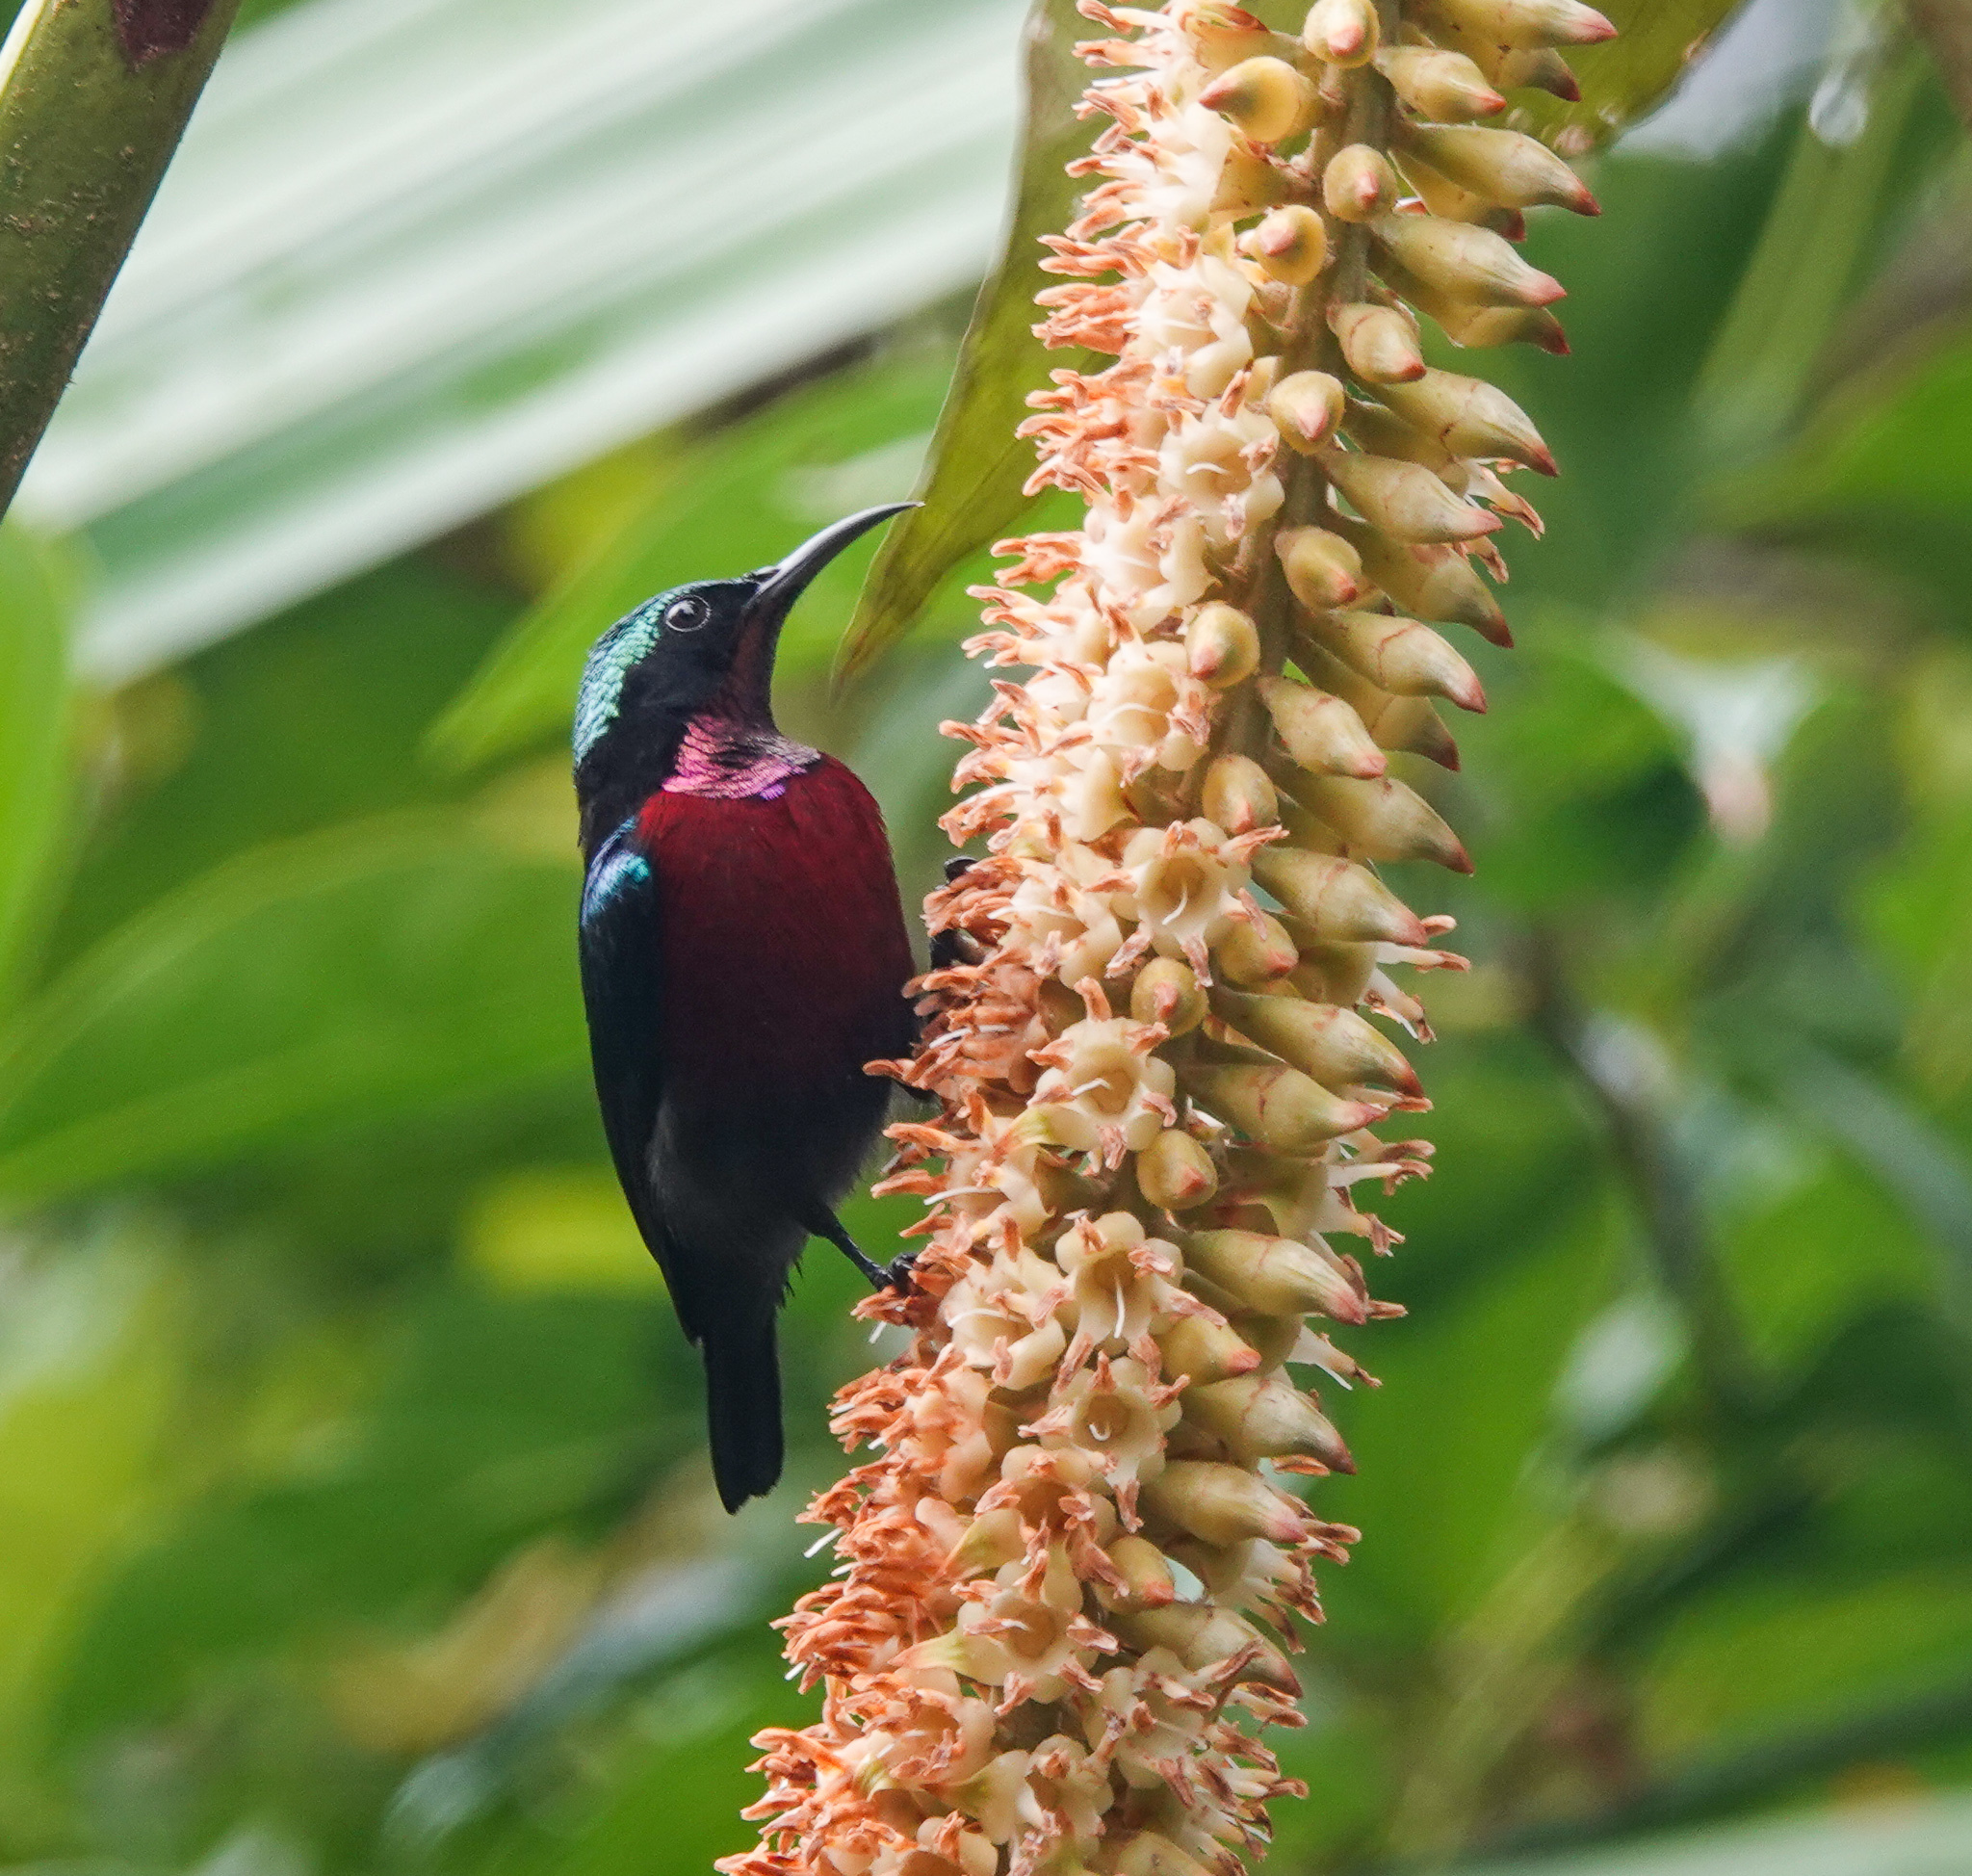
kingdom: Animalia
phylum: Chordata
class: Aves
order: Passeriformes
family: Nectariniidae
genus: Leptocoma
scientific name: Leptocoma brasiliana
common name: Van hasselt's sunbird
